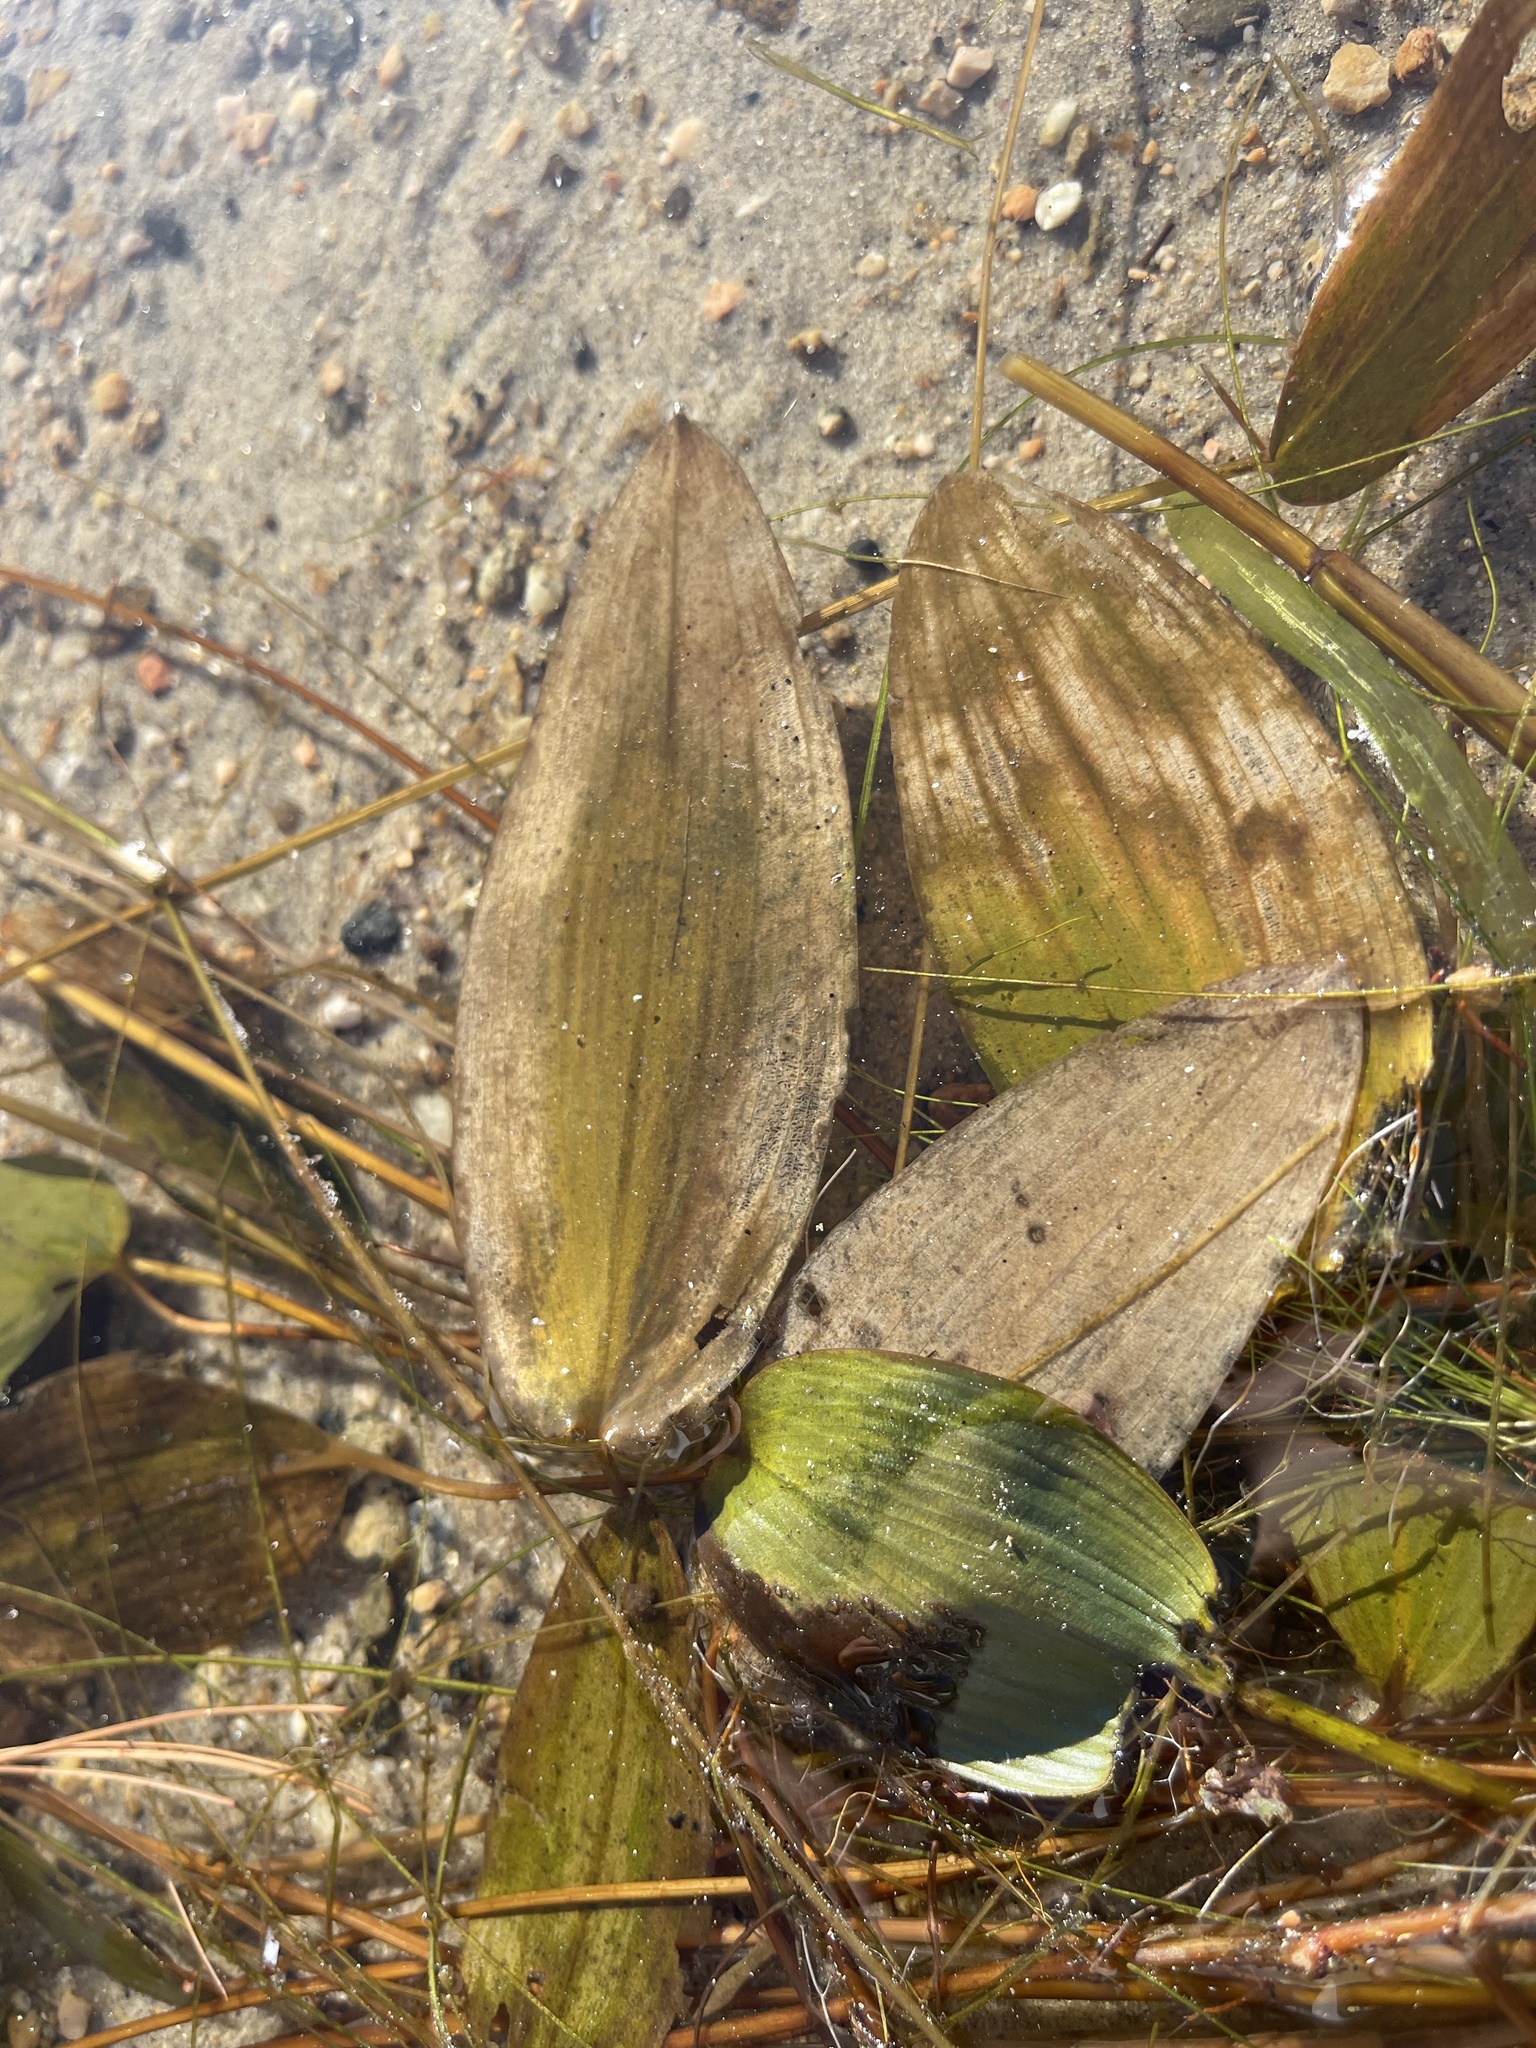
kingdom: Plantae
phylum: Tracheophyta
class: Liliopsida
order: Alismatales
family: Potamogetonaceae
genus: Potamogeton
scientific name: Potamogeton natans
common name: Broad-leaved pondweed
